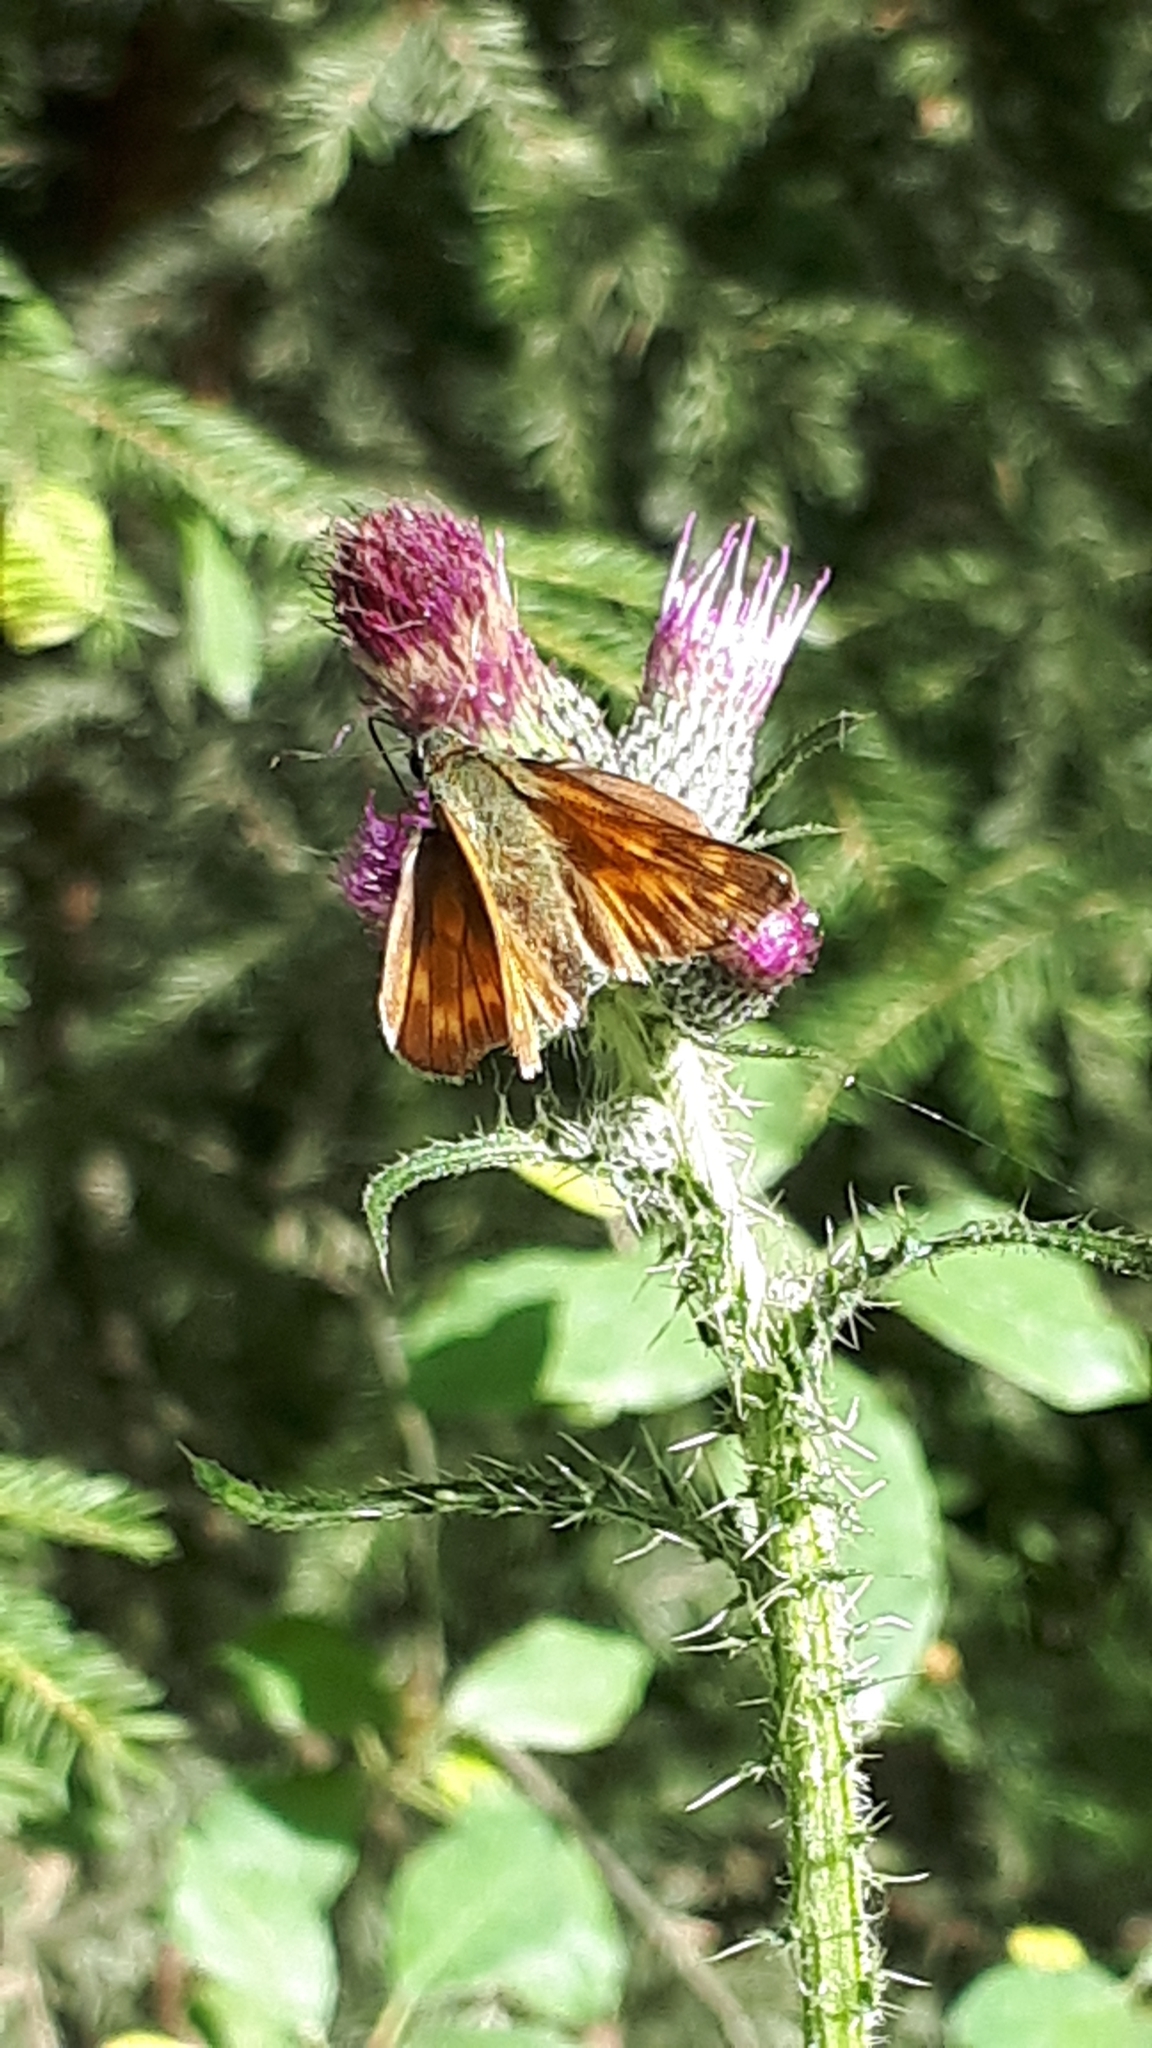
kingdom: Animalia
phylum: Arthropoda
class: Insecta
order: Lepidoptera
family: Hesperiidae
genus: Ochlodes
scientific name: Ochlodes venata
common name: Large skipper
